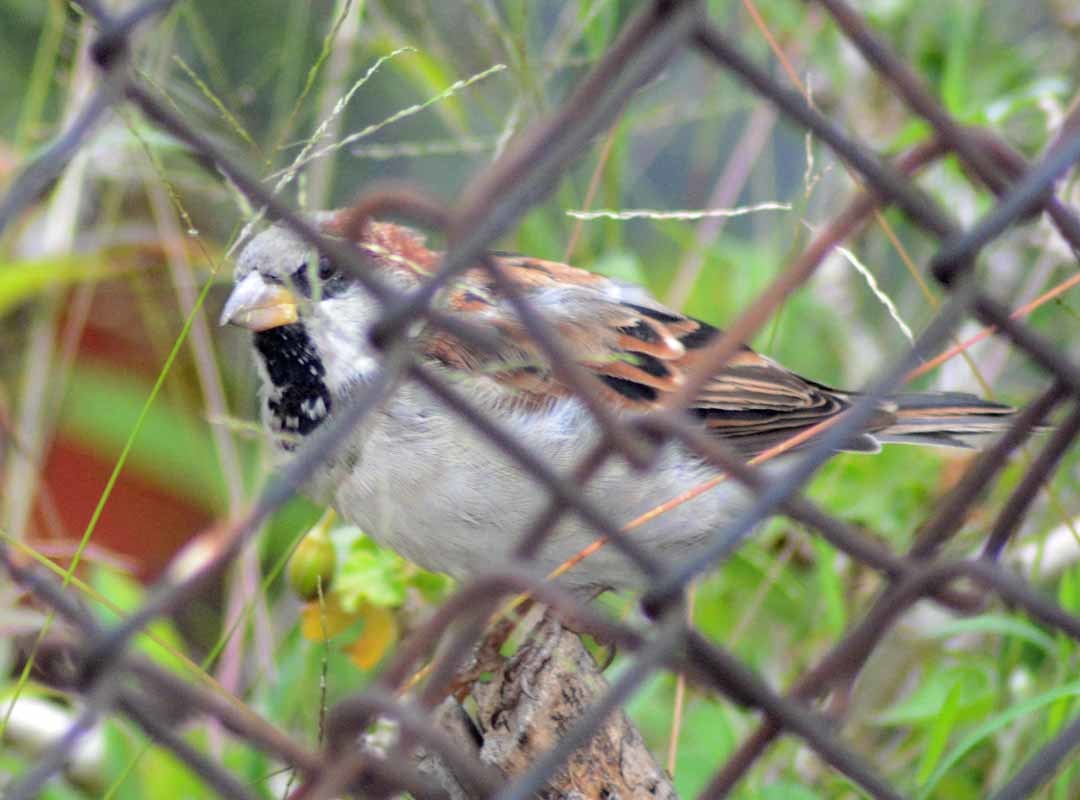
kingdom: Animalia
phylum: Chordata
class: Aves
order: Passeriformes
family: Passeridae
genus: Passer
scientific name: Passer domesticus
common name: House sparrow
